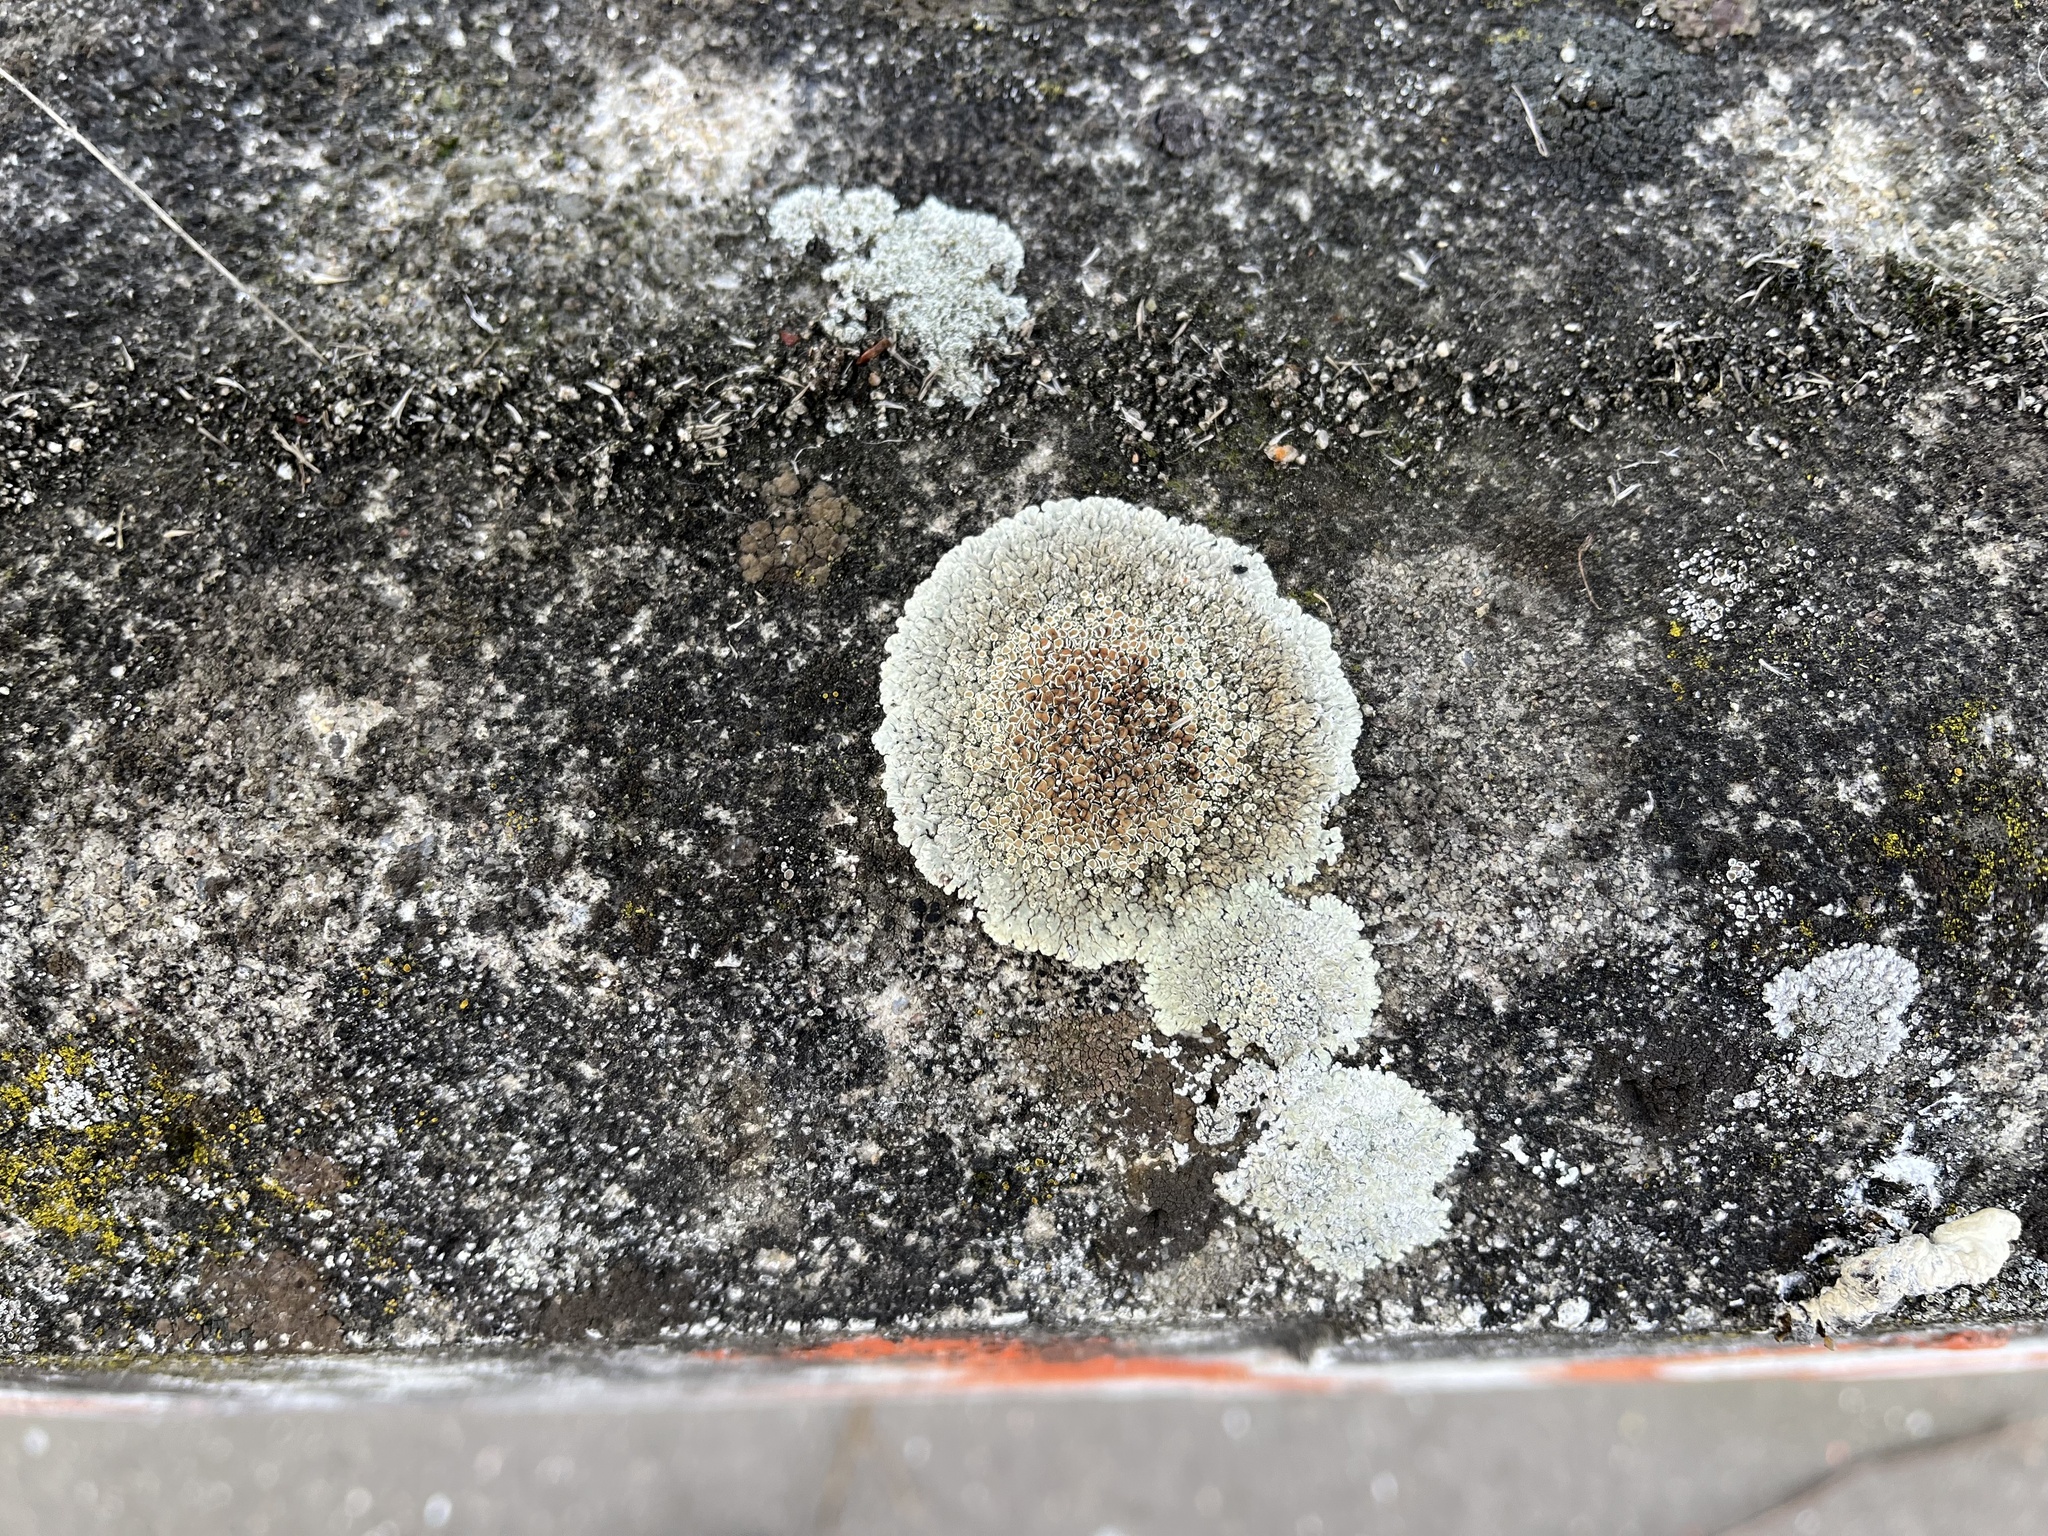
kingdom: Fungi
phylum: Ascomycota
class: Lecanoromycetes
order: Lecanorales
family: Lecanoraceae
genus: Protoparmeliopsis
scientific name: Protoparmeliopsis muralis
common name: Stonewall rim lichen
